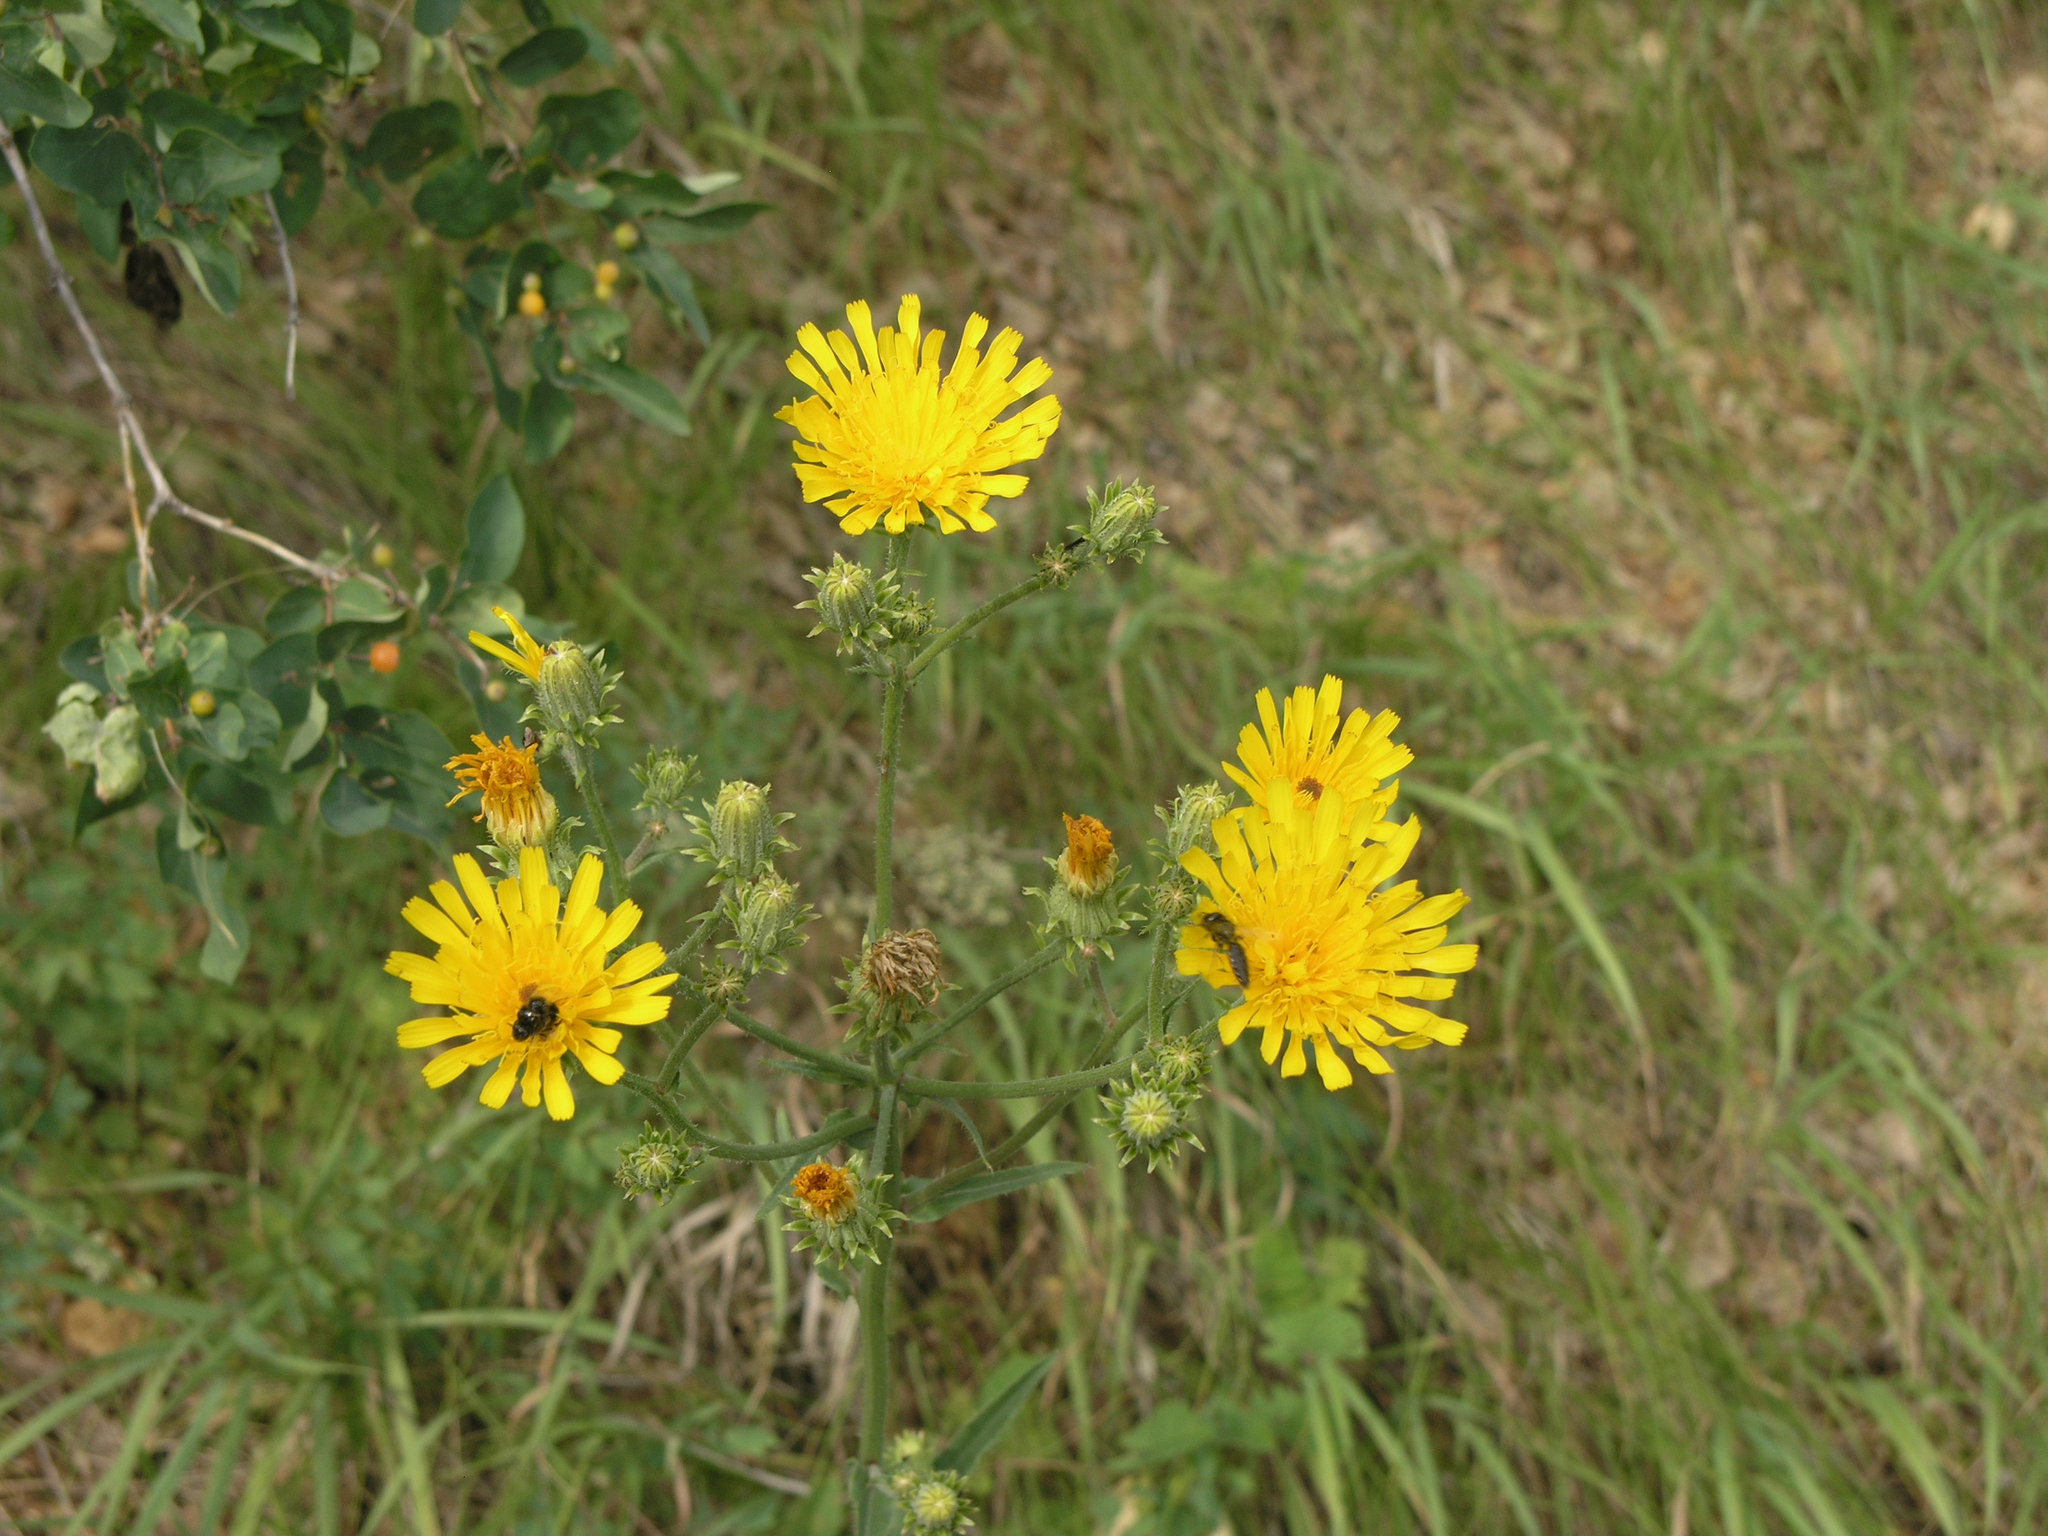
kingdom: Plantae
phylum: Tracheophyta
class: Magnoliopsida
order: Asterales
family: Asteraceae
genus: Picris
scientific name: Picris hieracioides
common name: Hawkweed oxtongue
